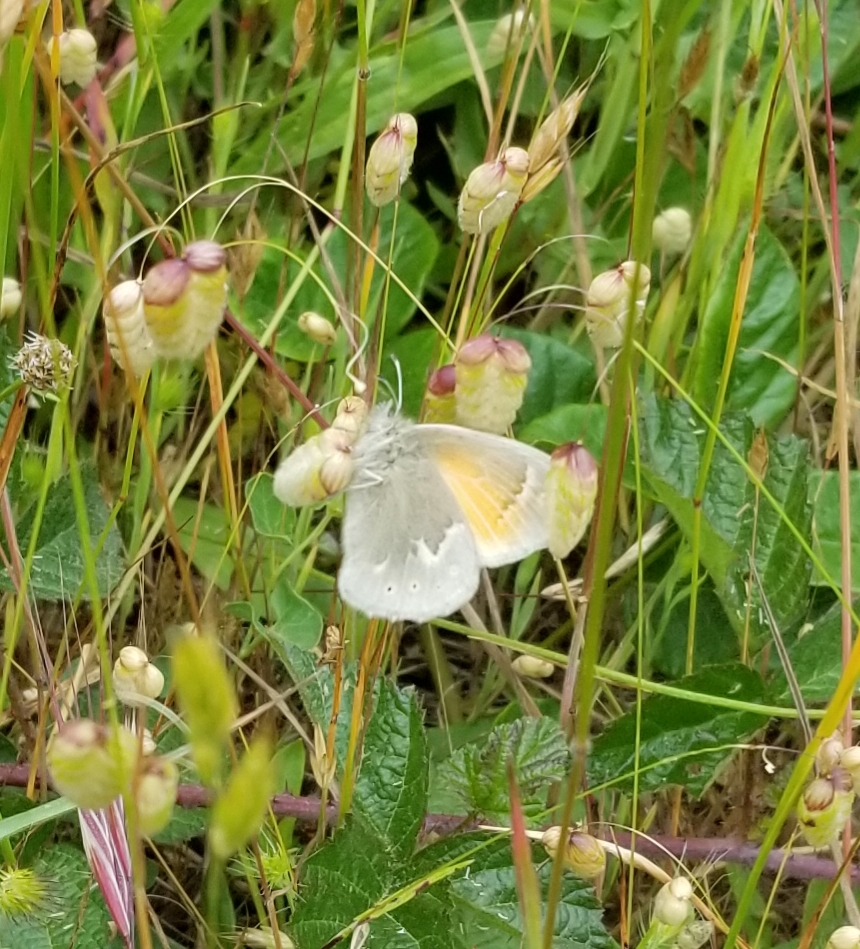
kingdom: Animalia
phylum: Arthropoda
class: Insecta
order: Lepidoptera
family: Nymphalidae
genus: Coenonympha
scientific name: Coenonympha california
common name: Common ringlet
